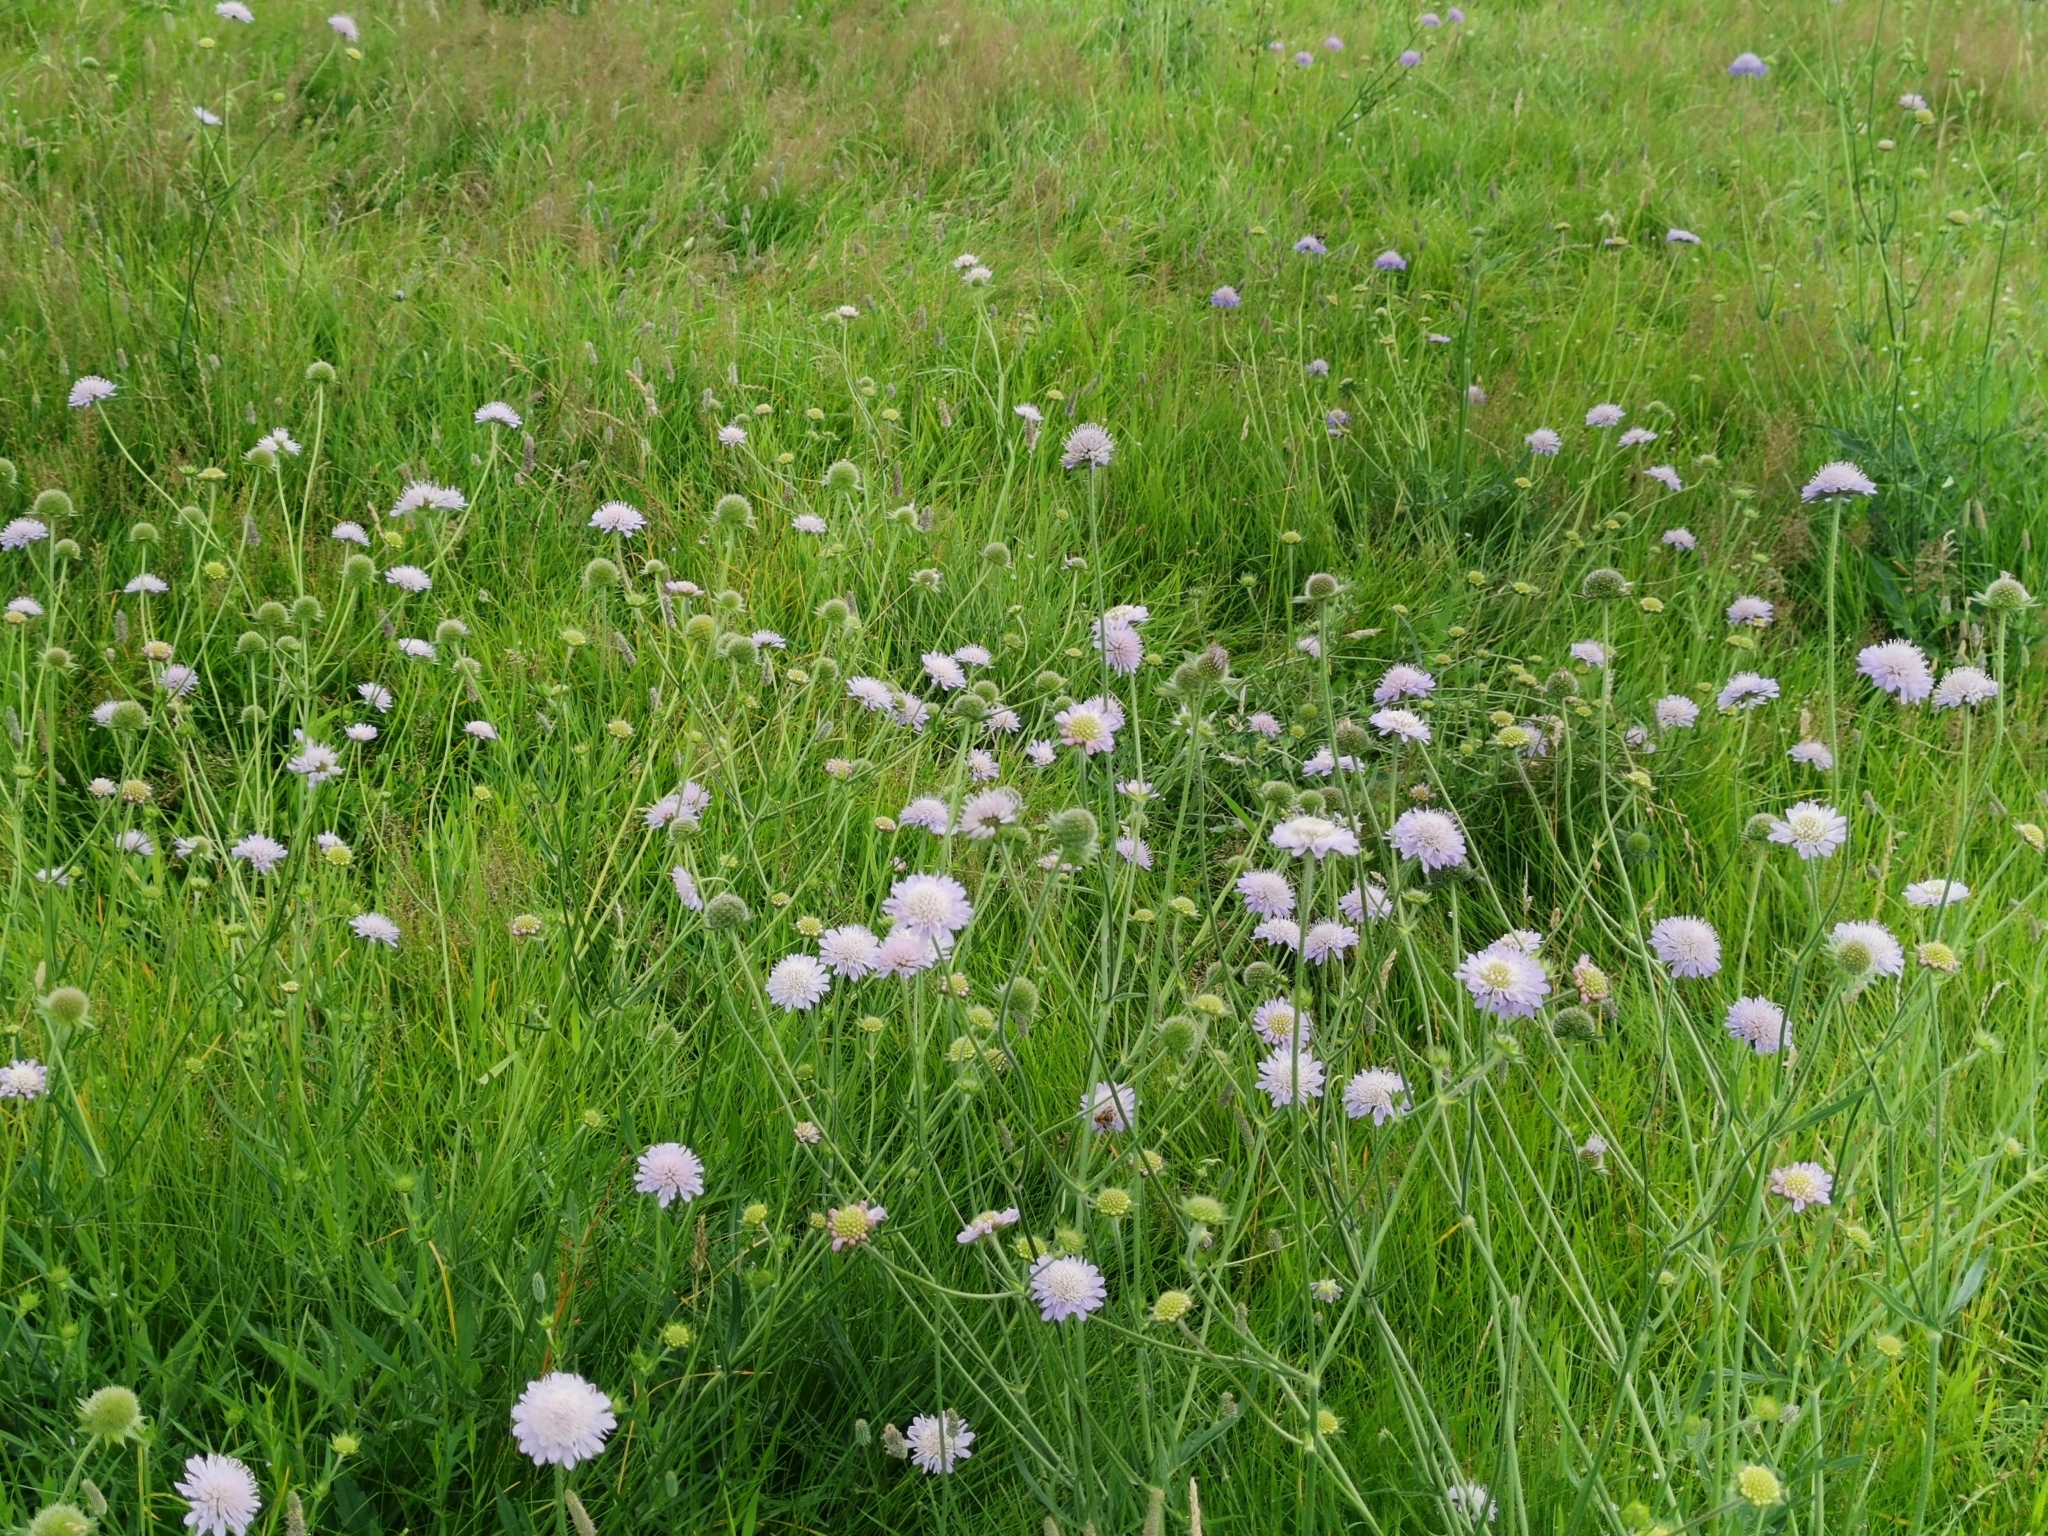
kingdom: Plantae
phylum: Tracheophyta
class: Magnoliopsida
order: Dipsacales
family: Caprifoliaceae
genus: Knautia
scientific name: Knautia arvensis
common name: Field scabiosa
